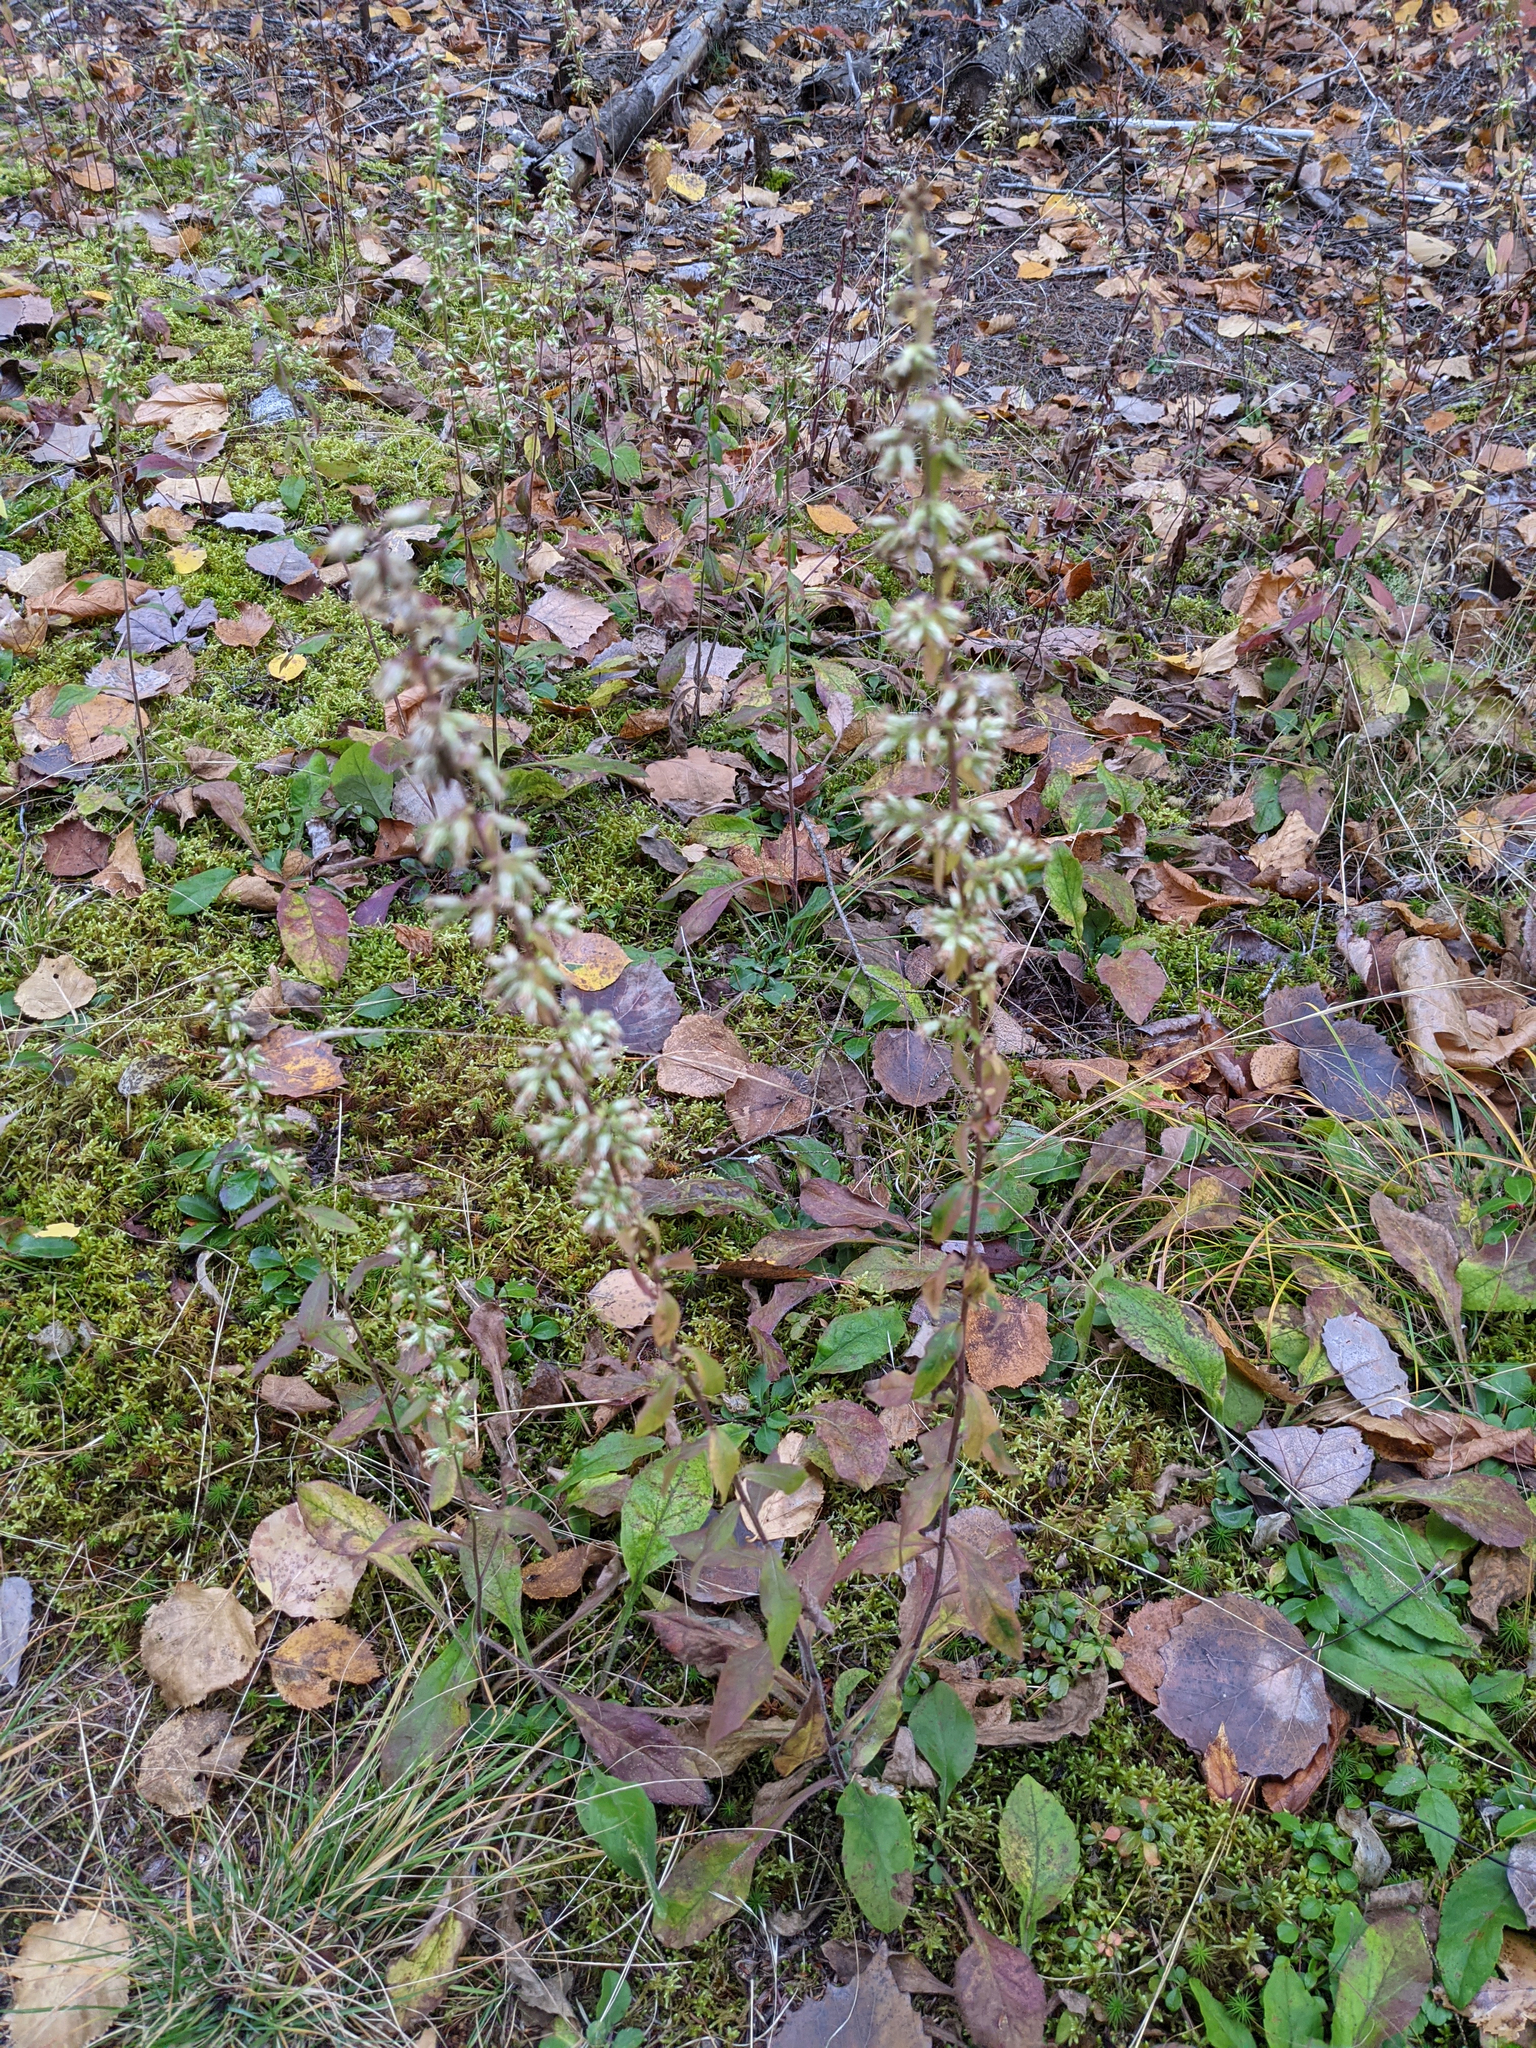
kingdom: Plantae
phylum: Tracheophyta
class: Magnoliopsida
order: Asterales
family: Asteraceae
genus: Solidago
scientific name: Solidago bicolor
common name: Silverrod
